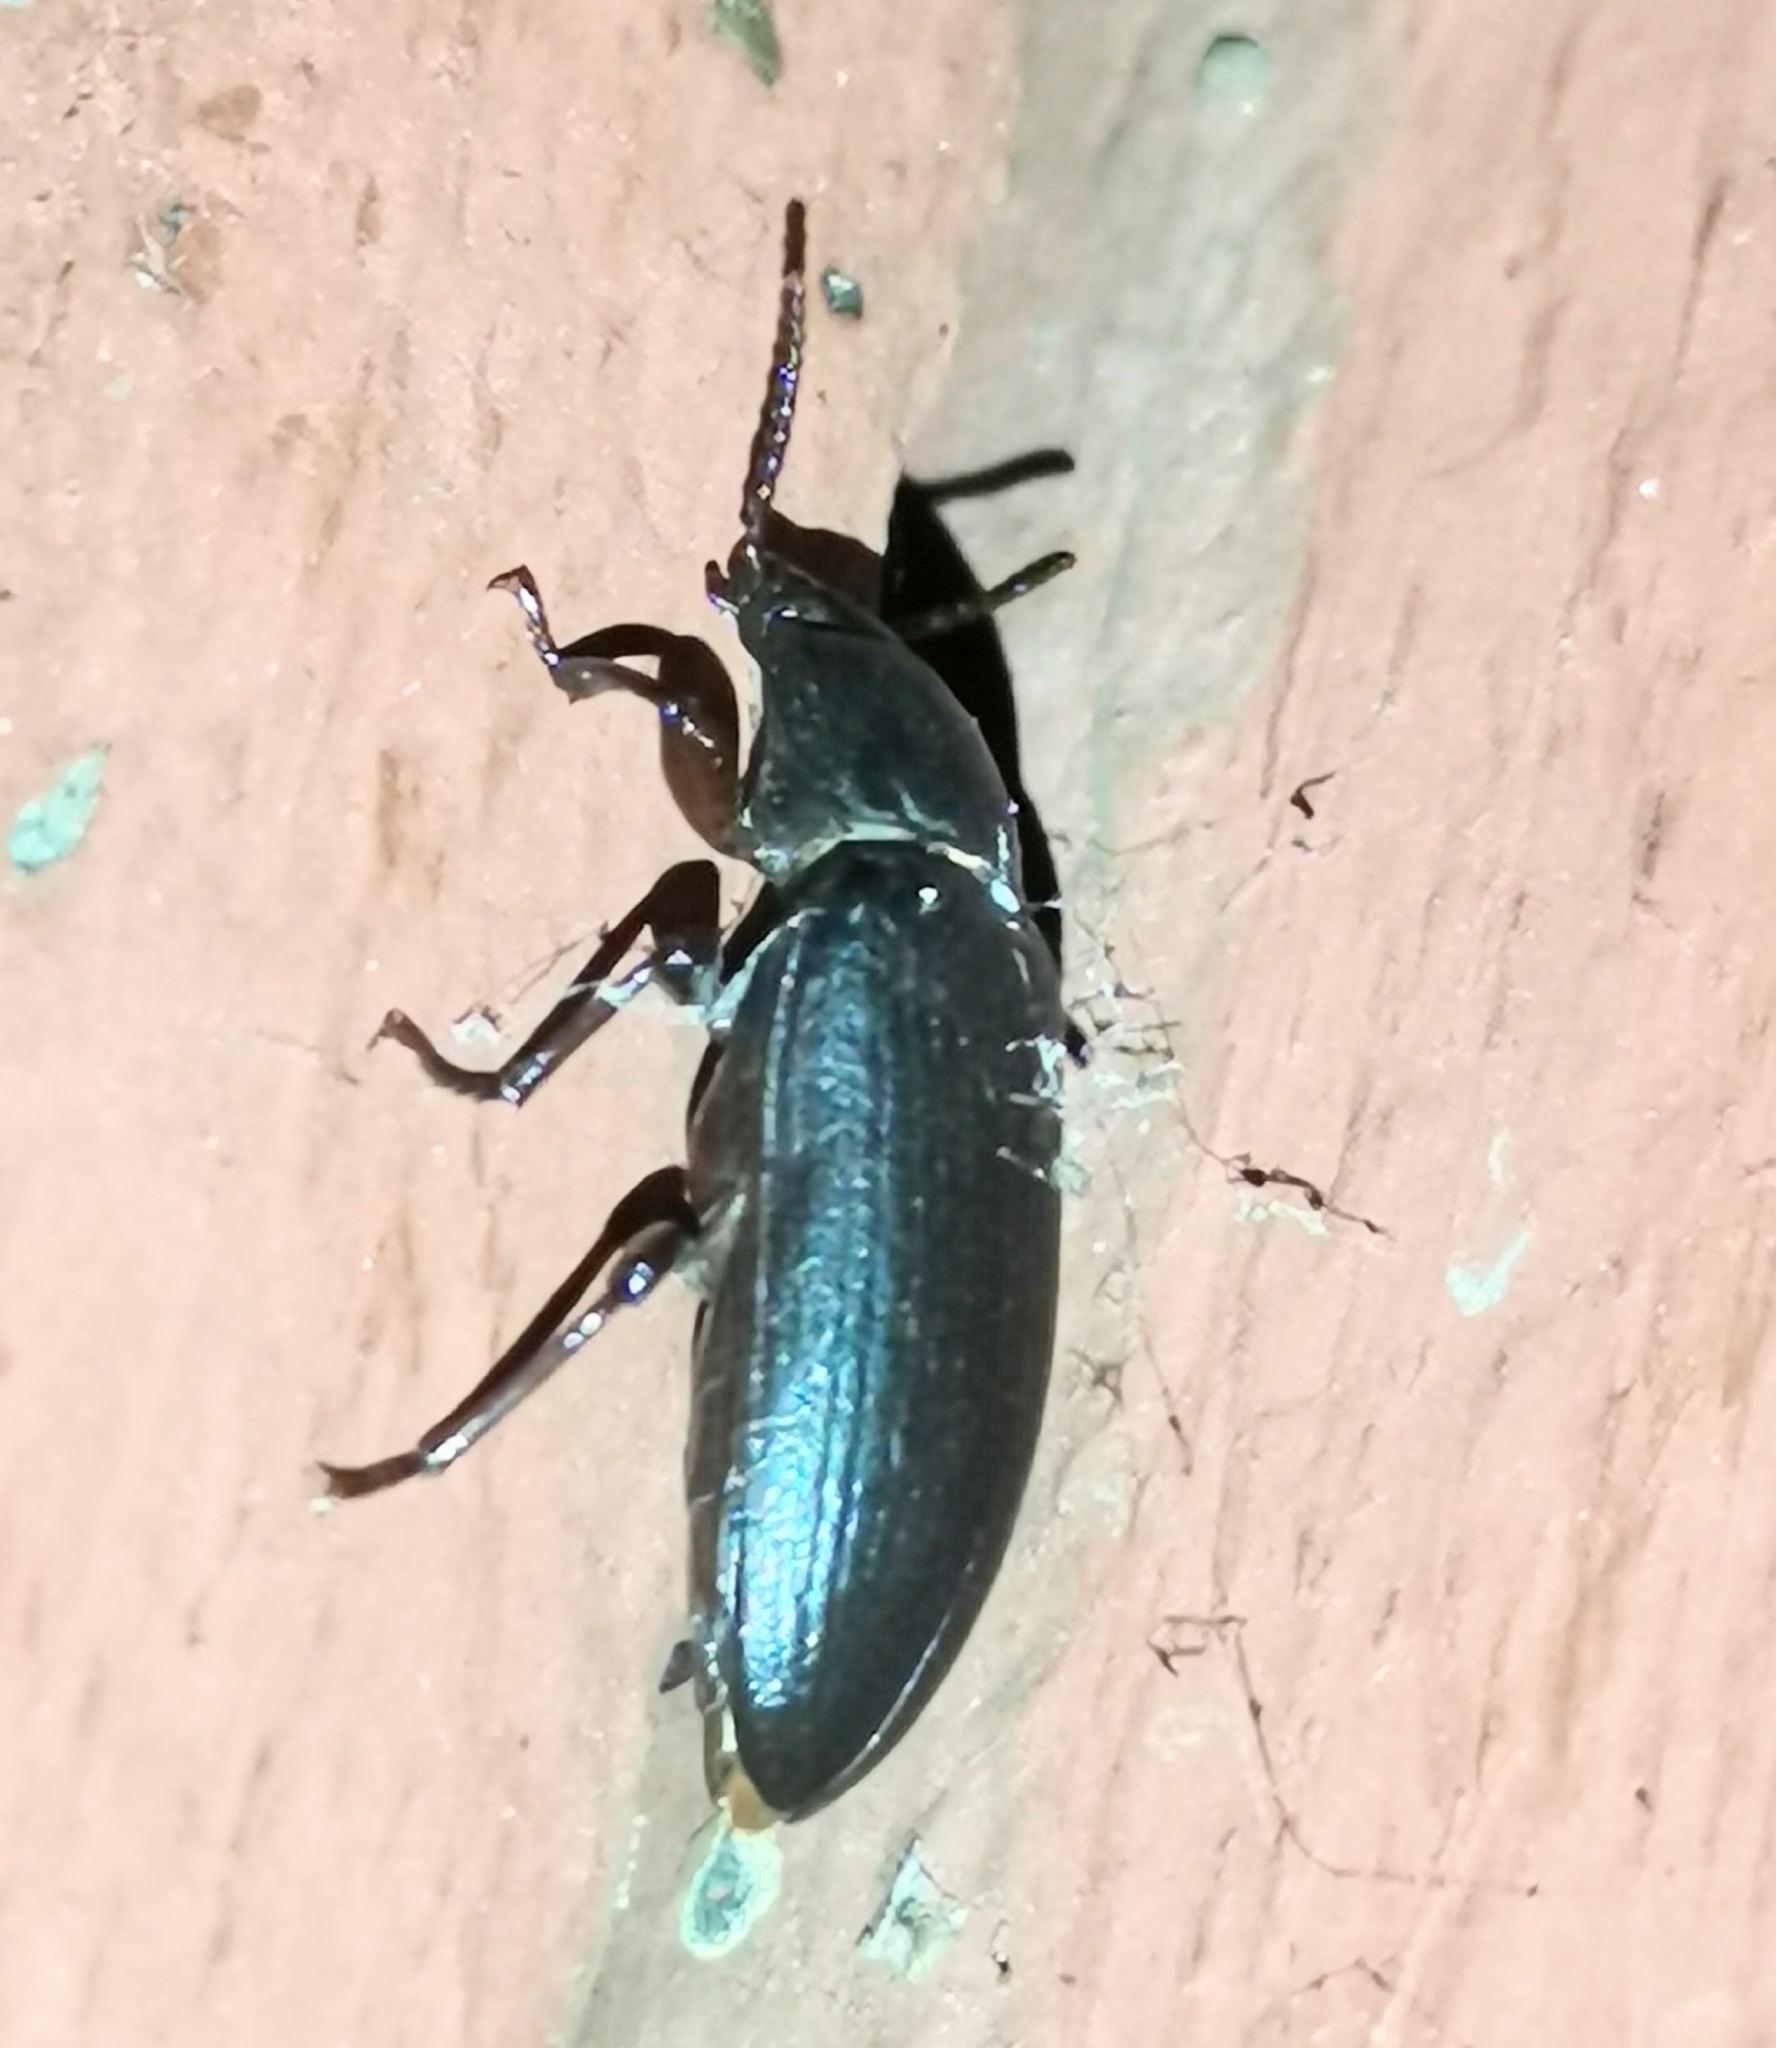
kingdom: Animalia
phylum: Arthropoda
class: Insecta
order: Coleoptera
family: Tenebrionidae
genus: Tenebrio
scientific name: Tenebrio molitor
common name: Hardback beetle
